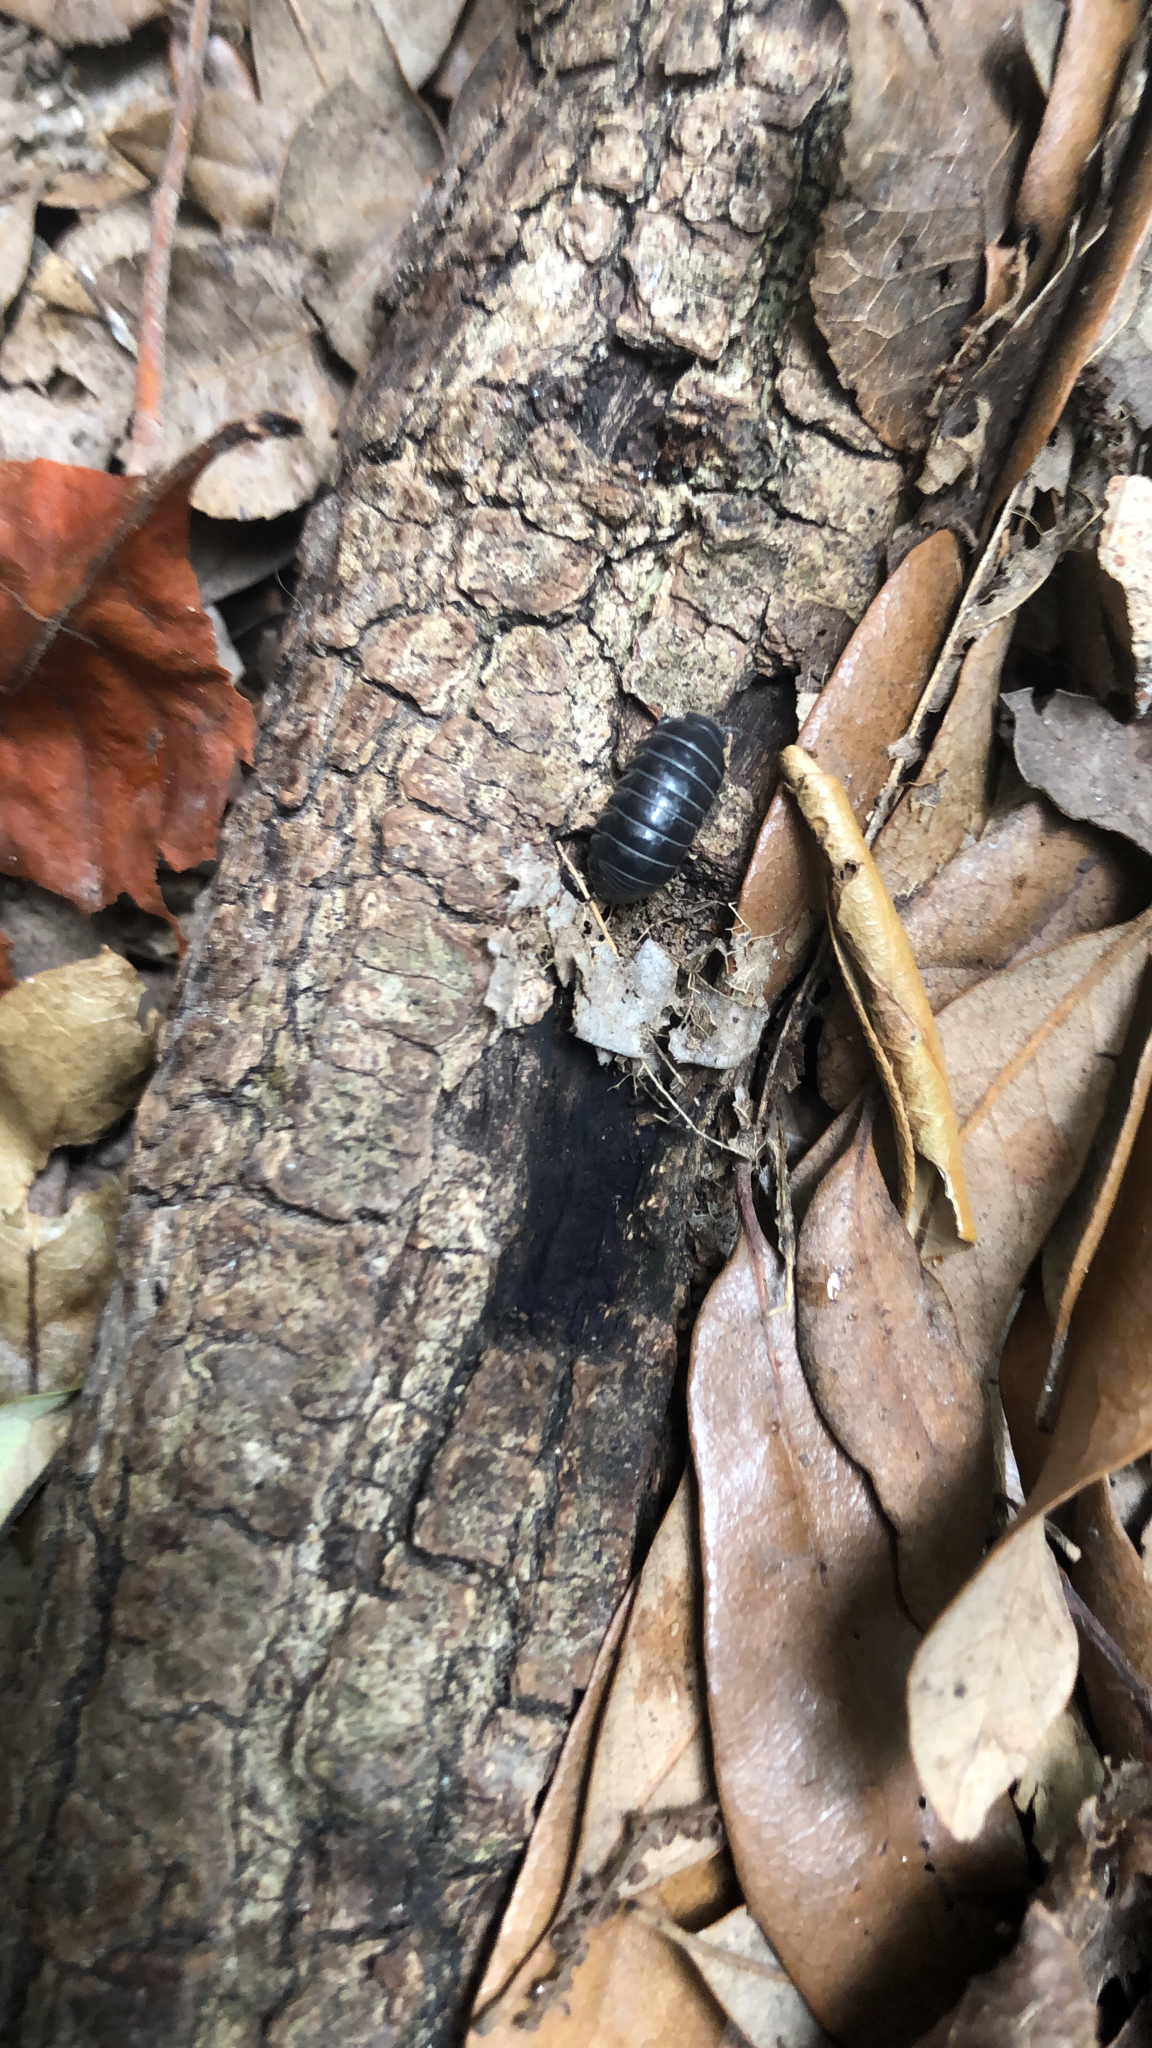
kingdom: Animalia
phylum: Arthropoda
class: Malacostraca
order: Isopoda
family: Armadillidiidae
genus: Armadillidium
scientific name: Armadillidium vulgare
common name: Common pill woodlouse
